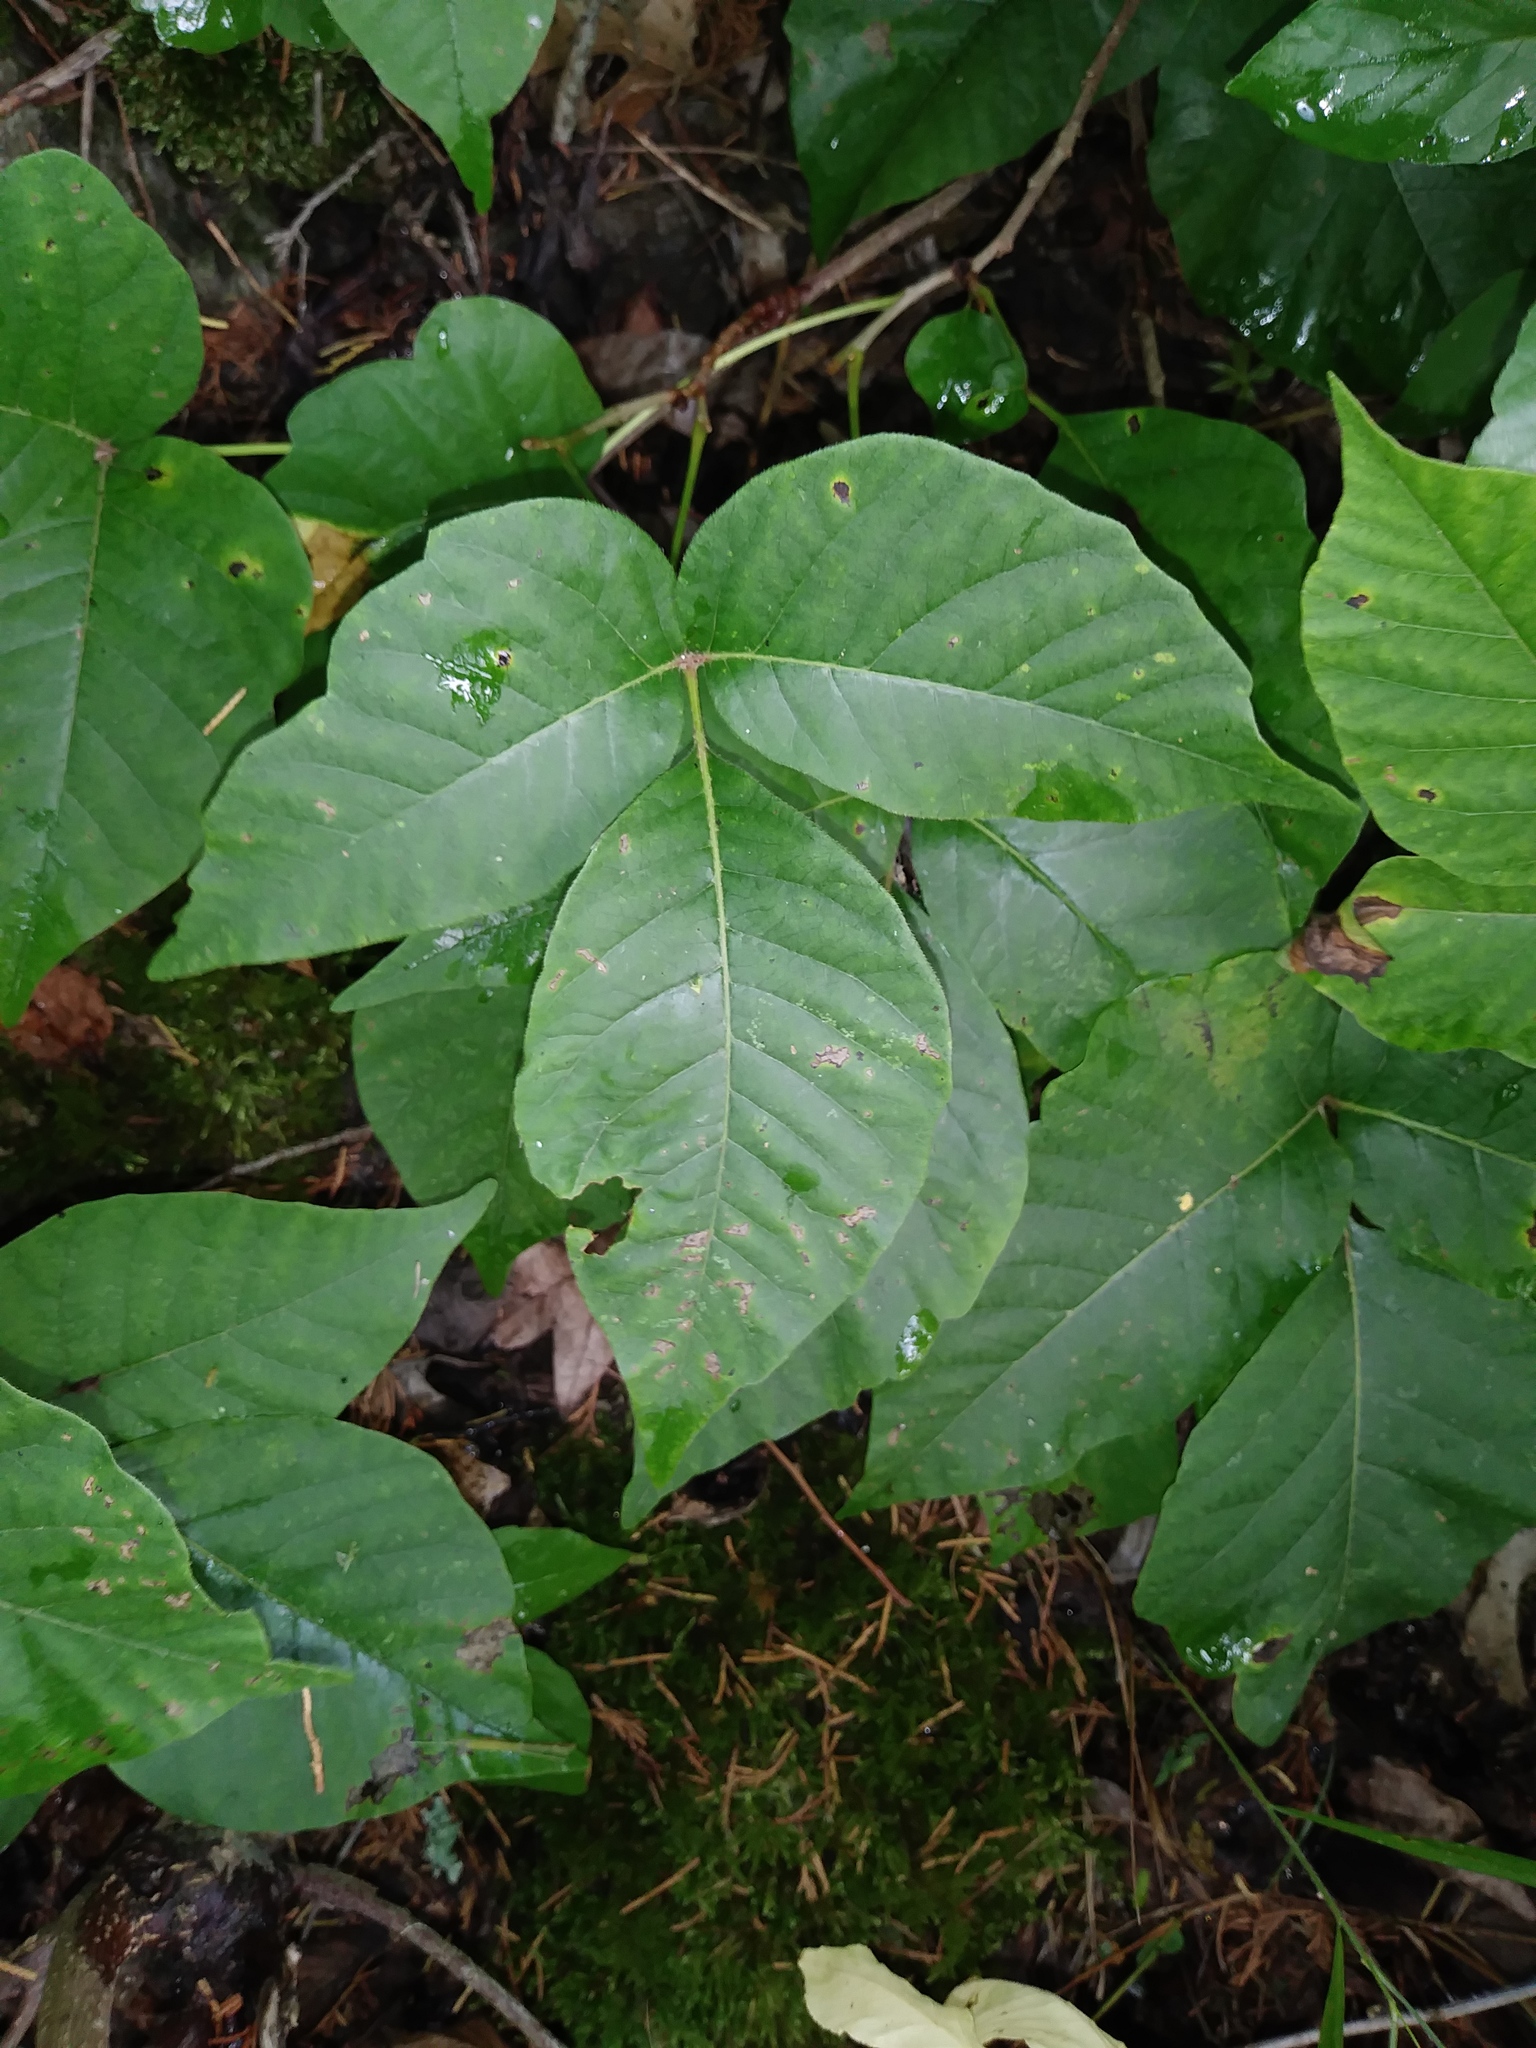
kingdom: Plantae
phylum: Tracheophyta
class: Magnoliopsida
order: Sapindales
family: Anacardiaceae
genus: Toxicodendron
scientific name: Toxicodendron radicans
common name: Poison ivy
